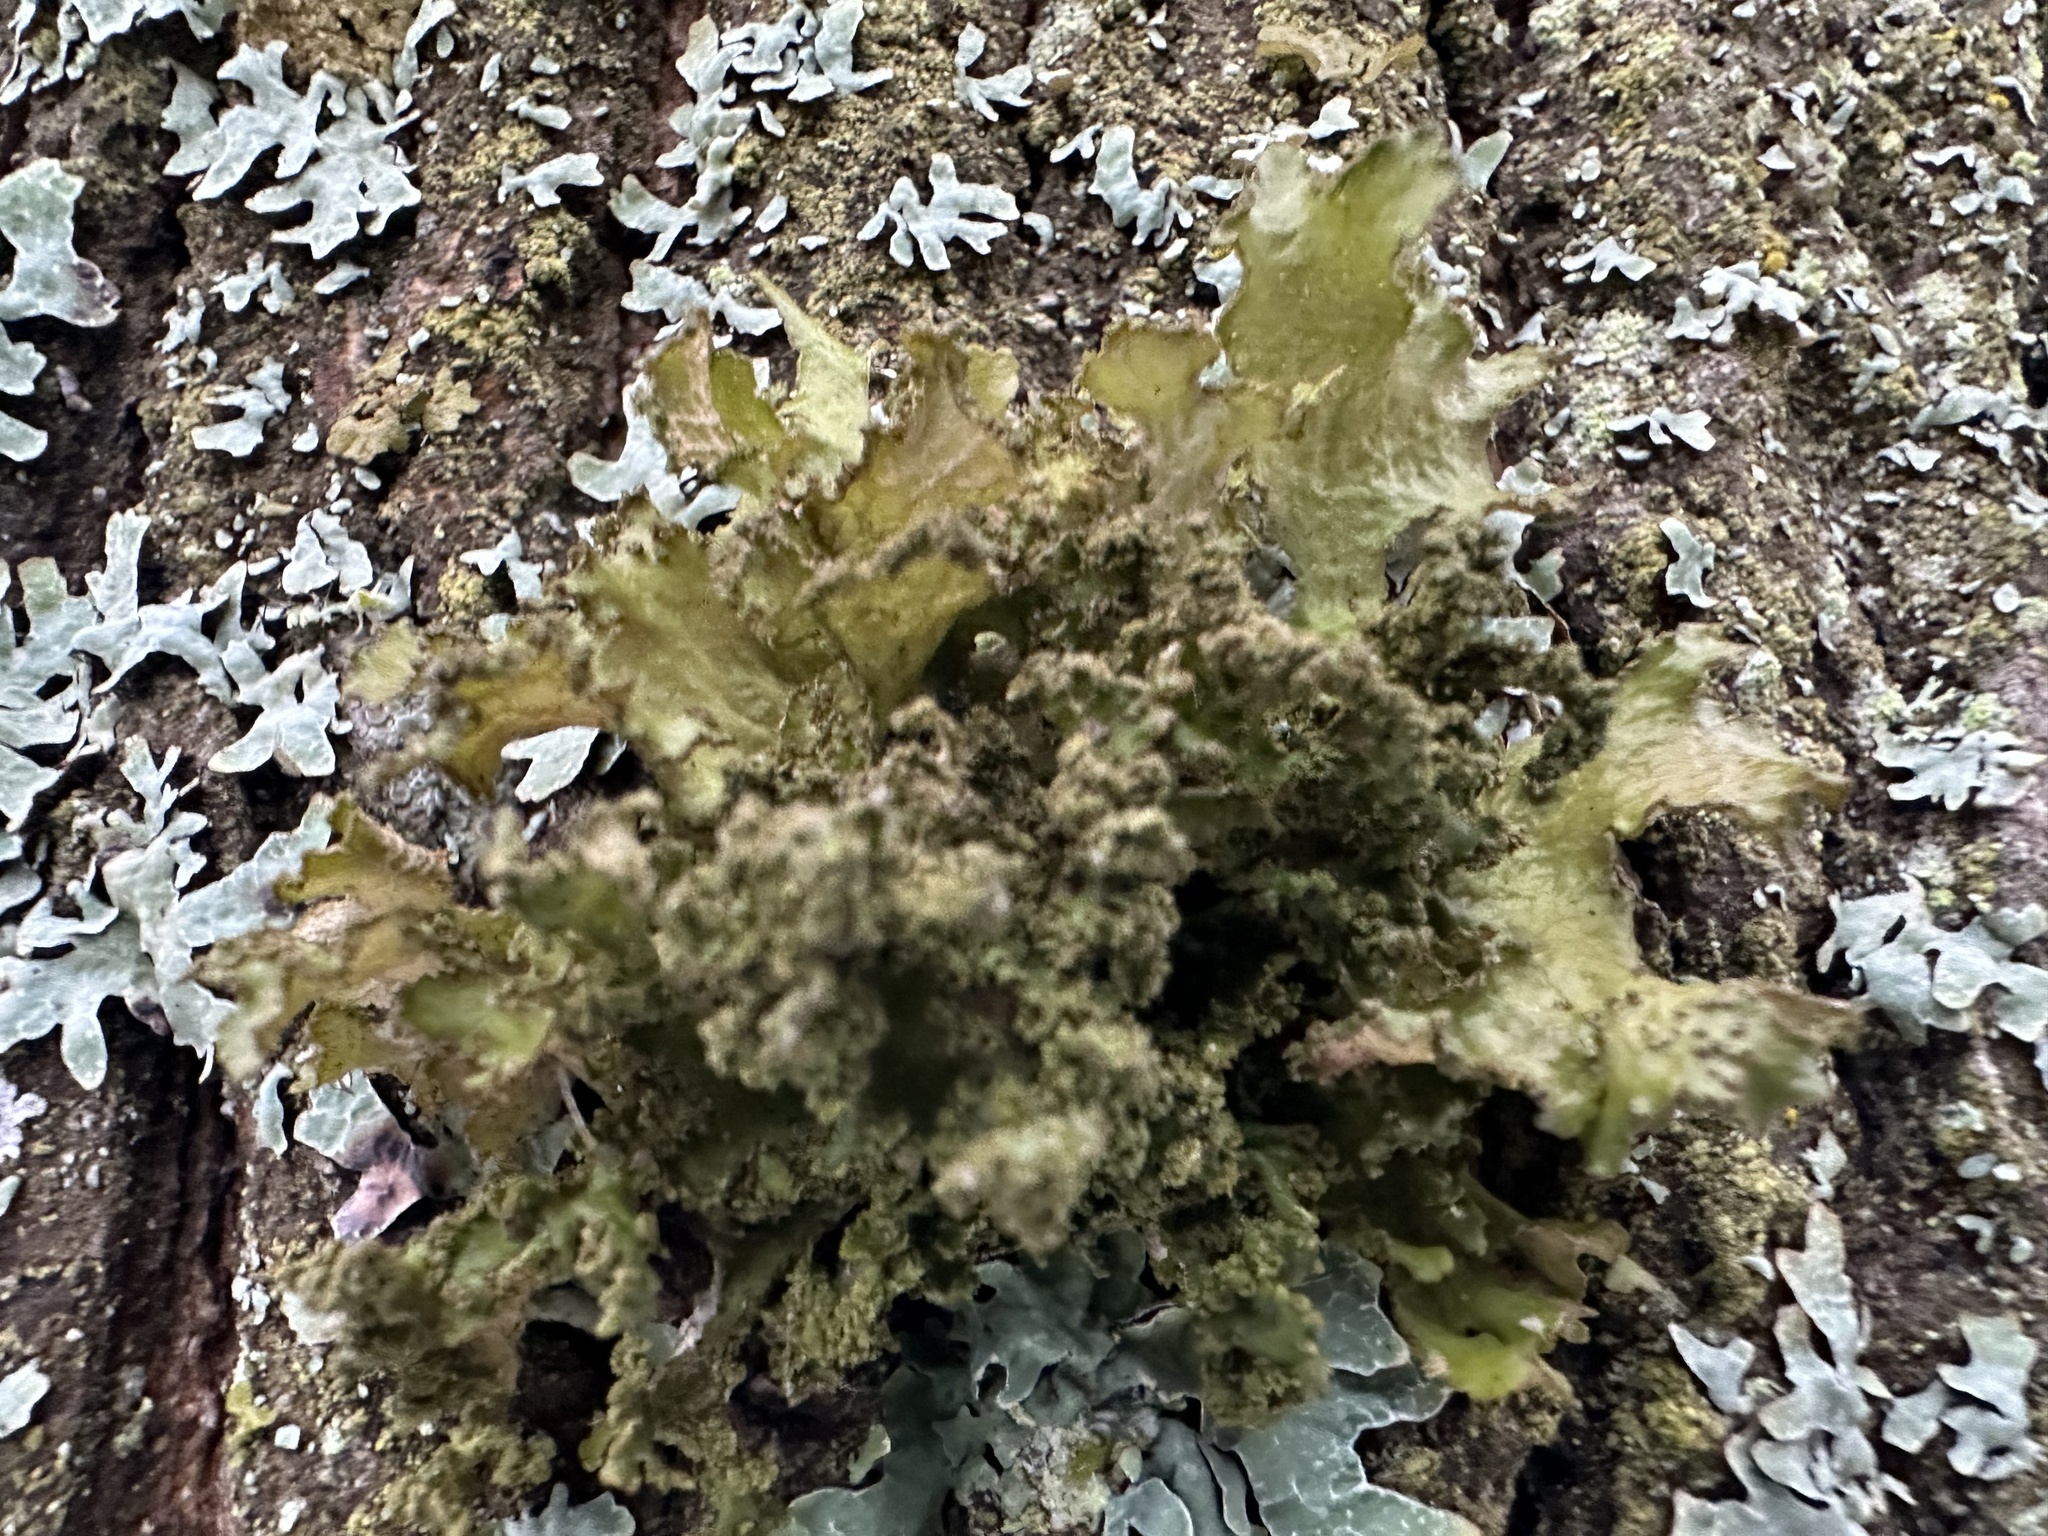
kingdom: Fungi
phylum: Ascomycota
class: Lecanoromycetes
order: Lecanorales
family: Parmeliaceae
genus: Nephromopsis
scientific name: Nephromopsis chlorophylla
